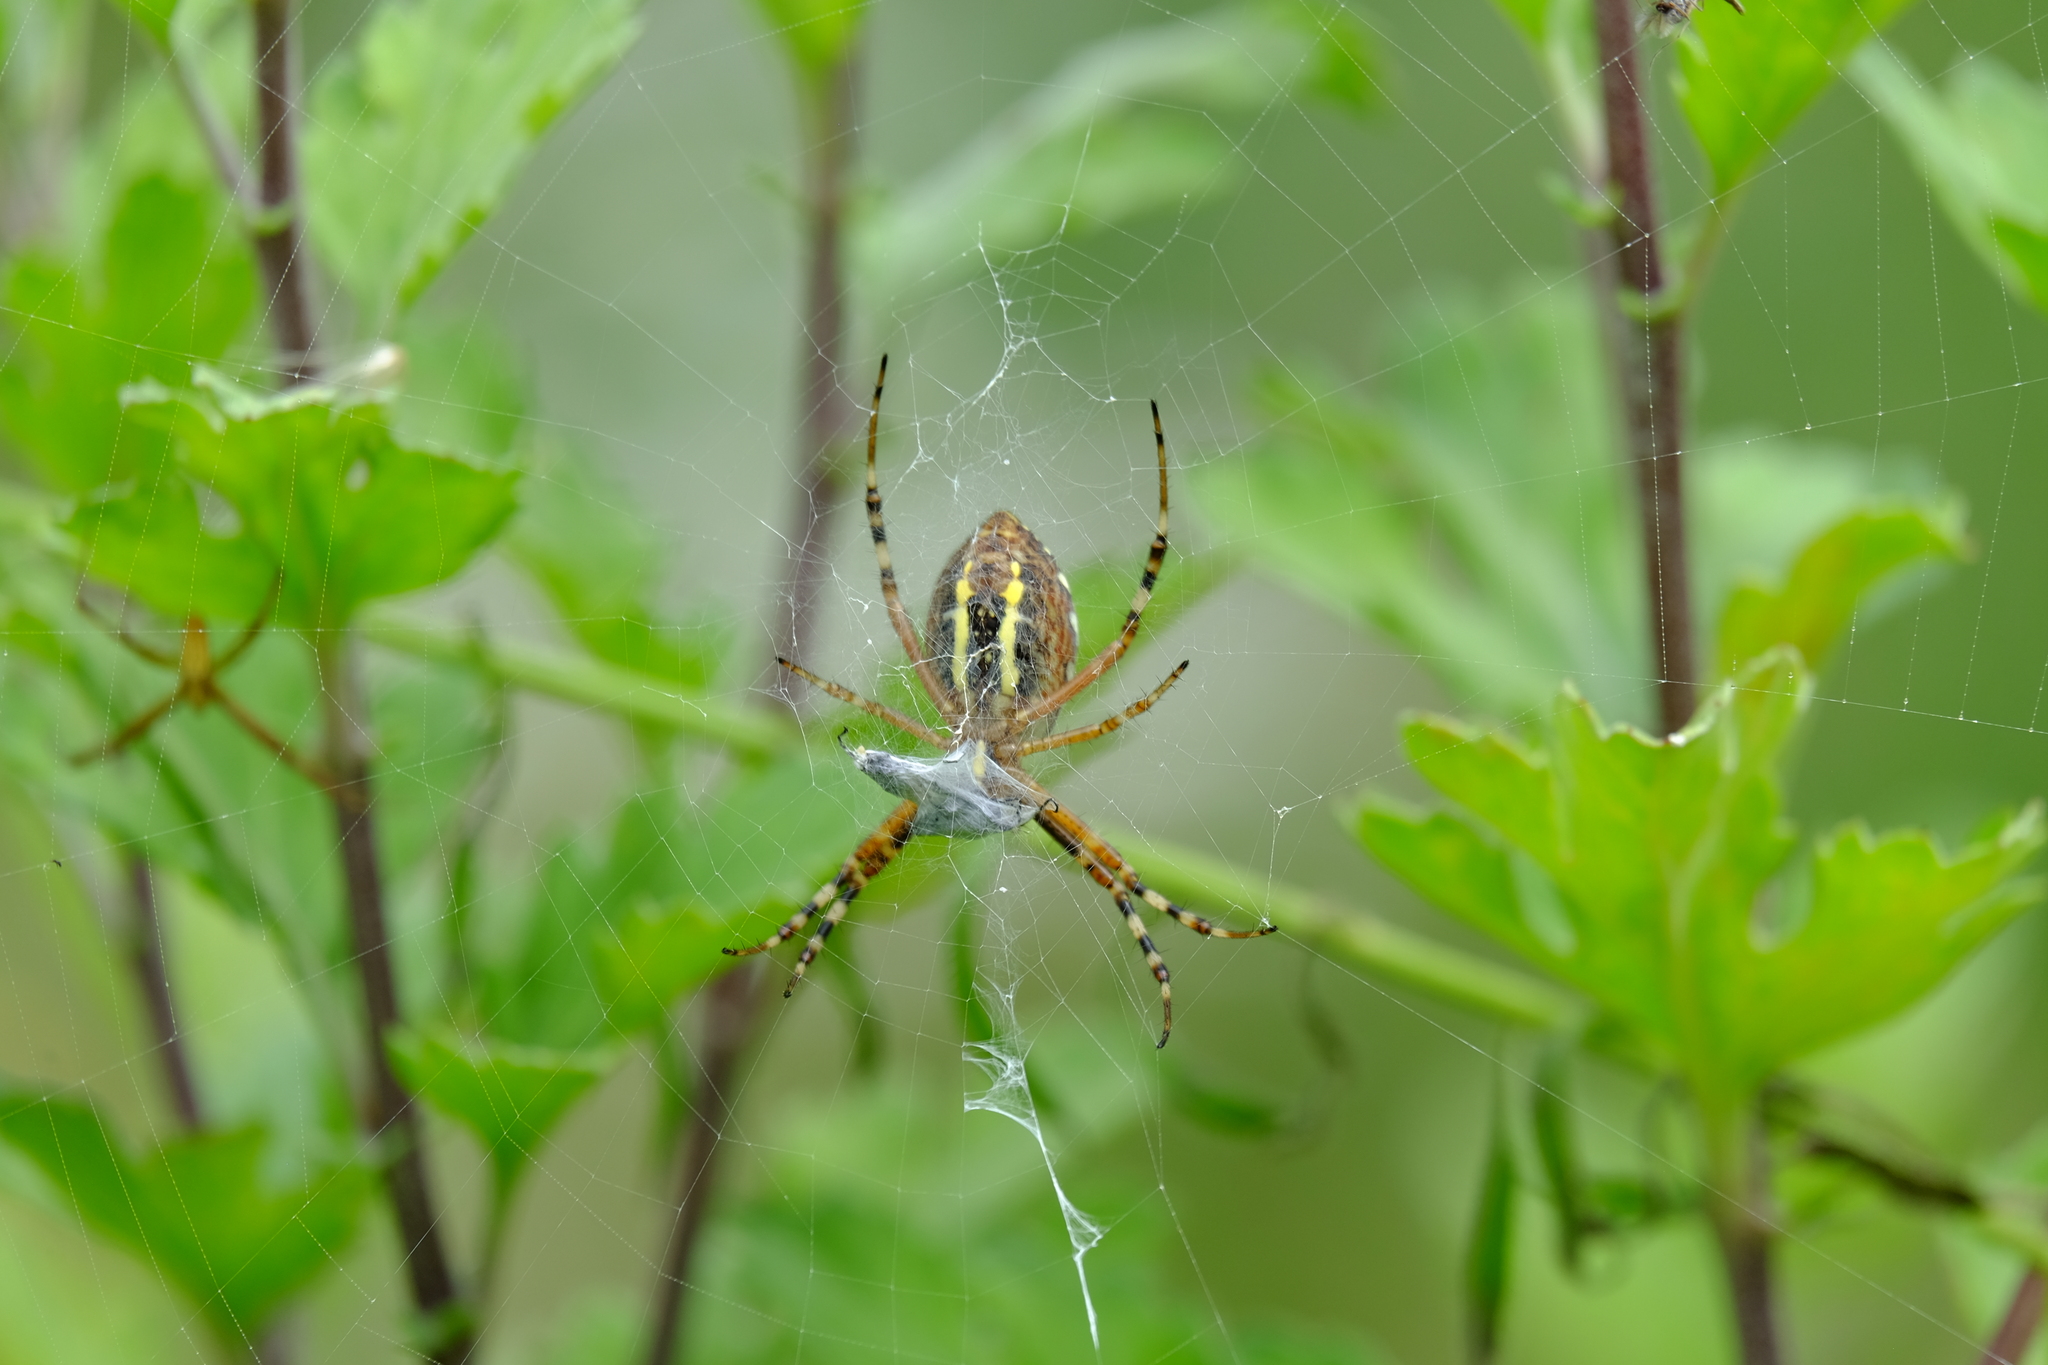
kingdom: Animalia
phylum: Arthropoda
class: Arachnida
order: Araneae
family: Araneidae
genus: Argiope
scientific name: Argiope bruennichi
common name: Wasp spider
